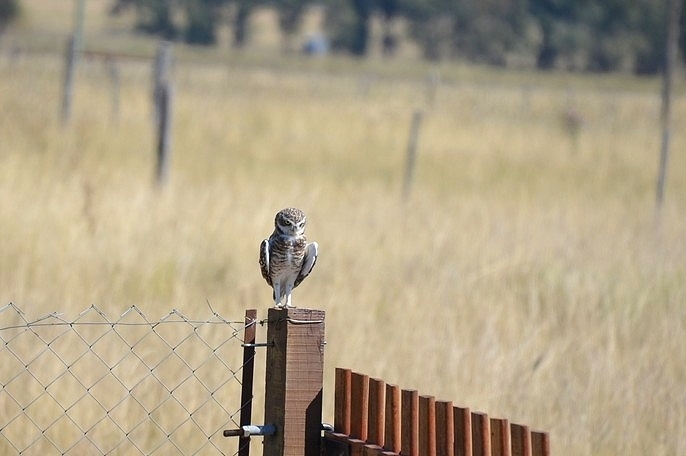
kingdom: Animalia
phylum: Chordata
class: Aves
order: Strigiformes
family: Strigidae
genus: Athene
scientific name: Athene cunicularia
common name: Burrowing owl
